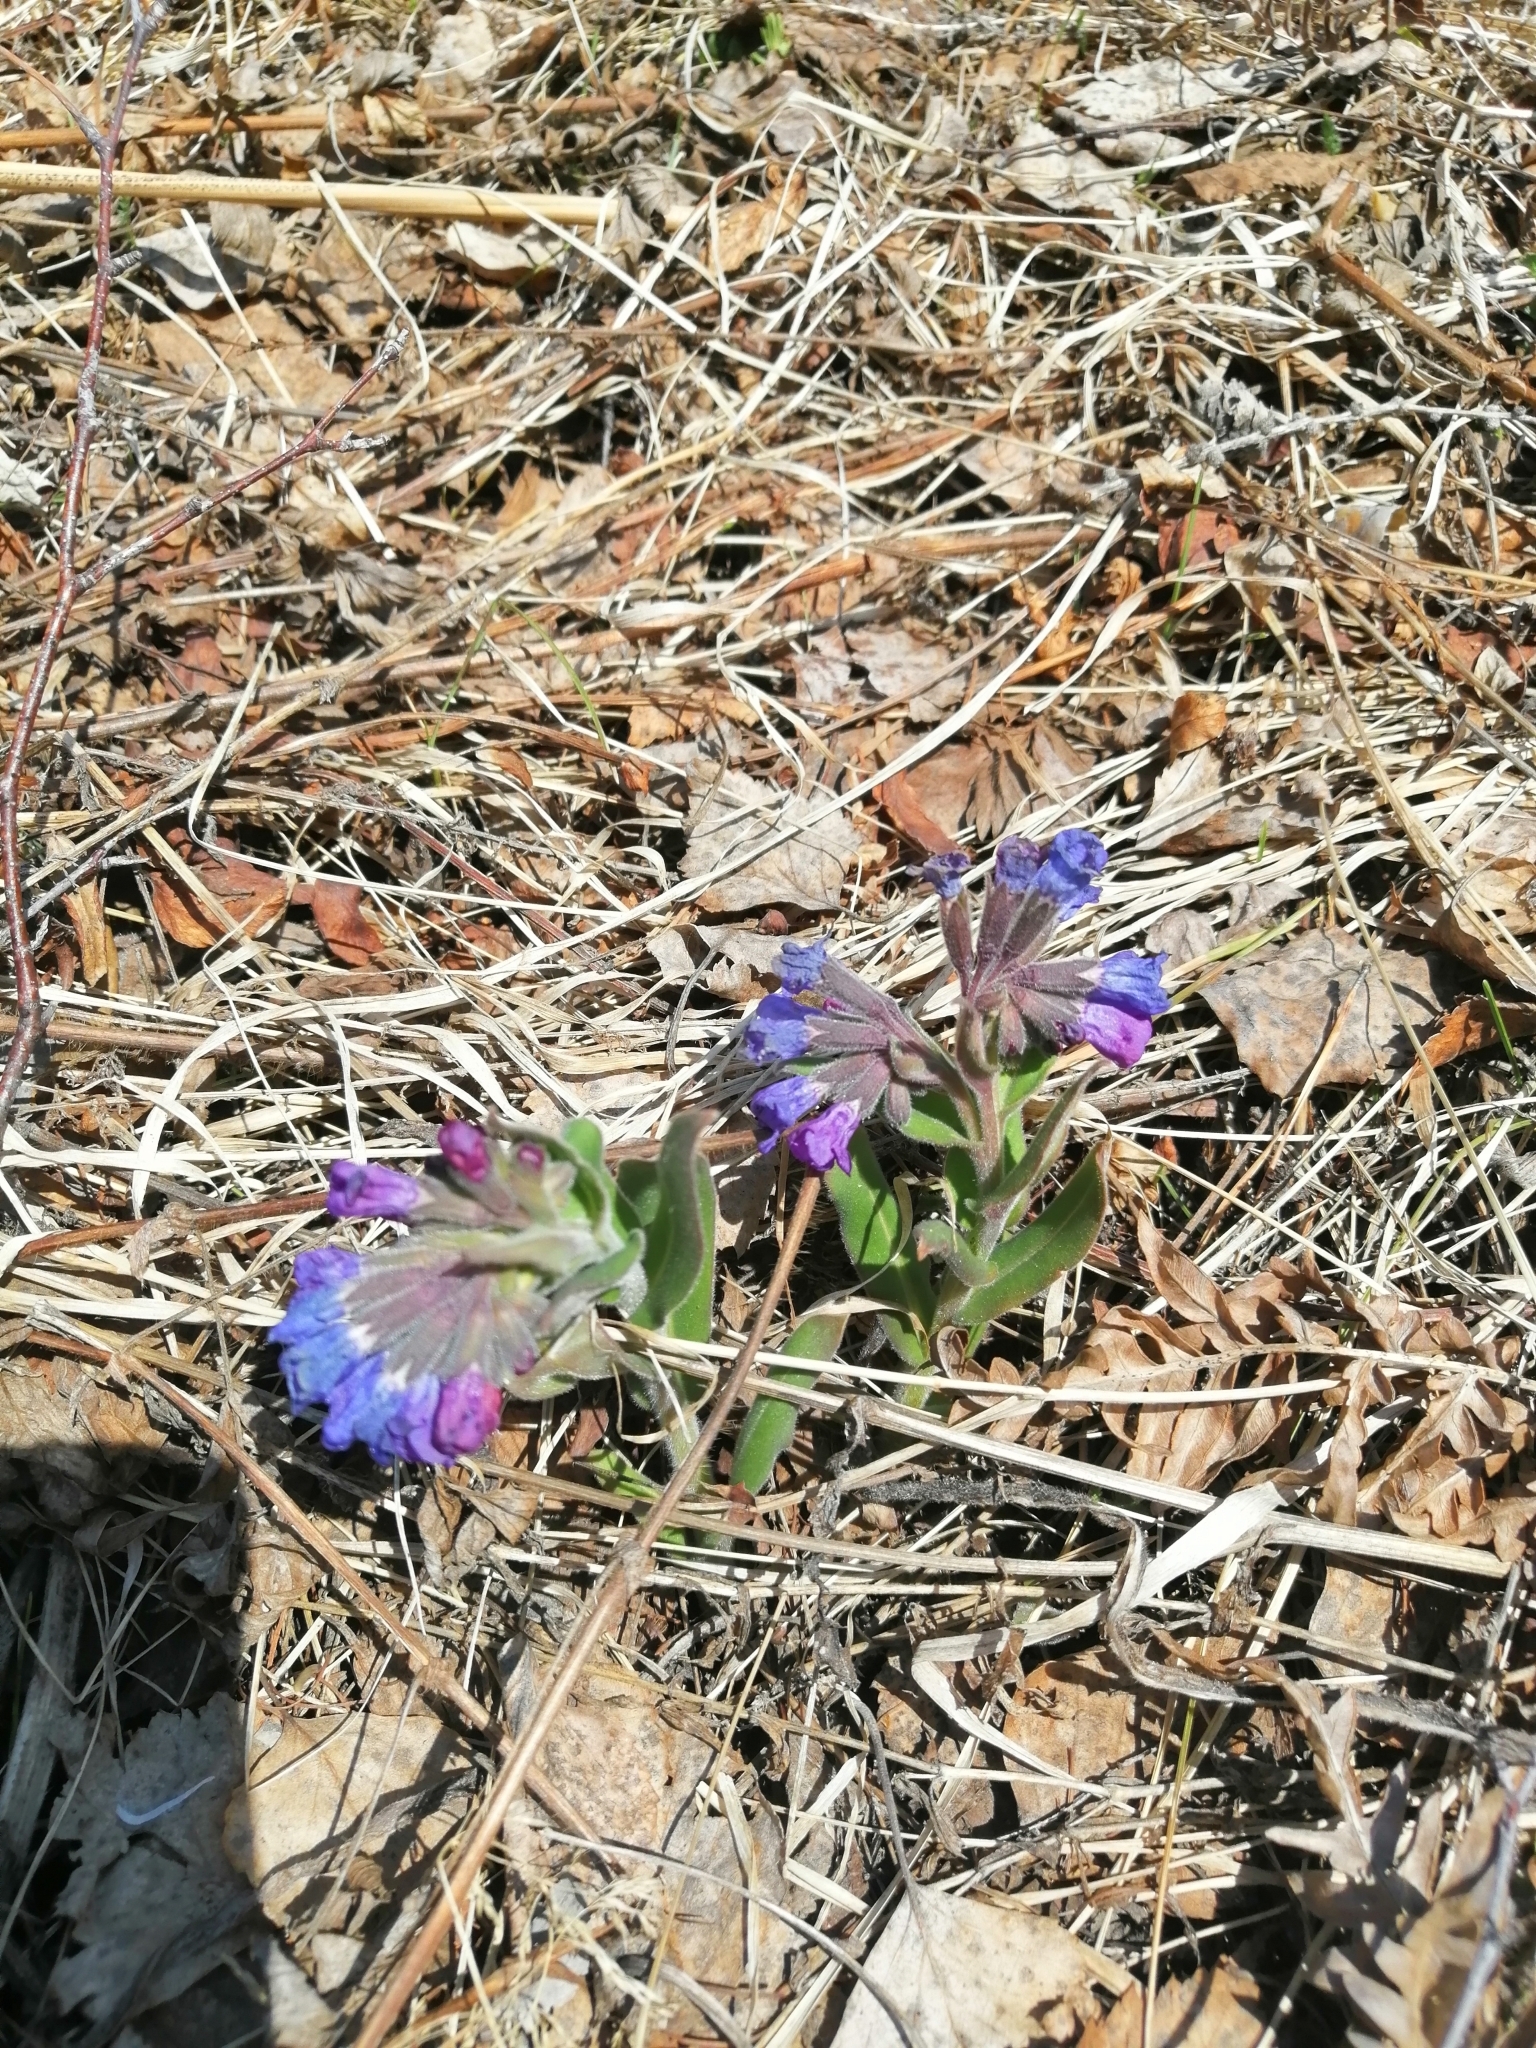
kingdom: Plantae
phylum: Tracheophyta
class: Magnoliopsida
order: Boraginales
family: Boraginaceae
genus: Pulmonaria
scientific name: Pulmonaria mollis
